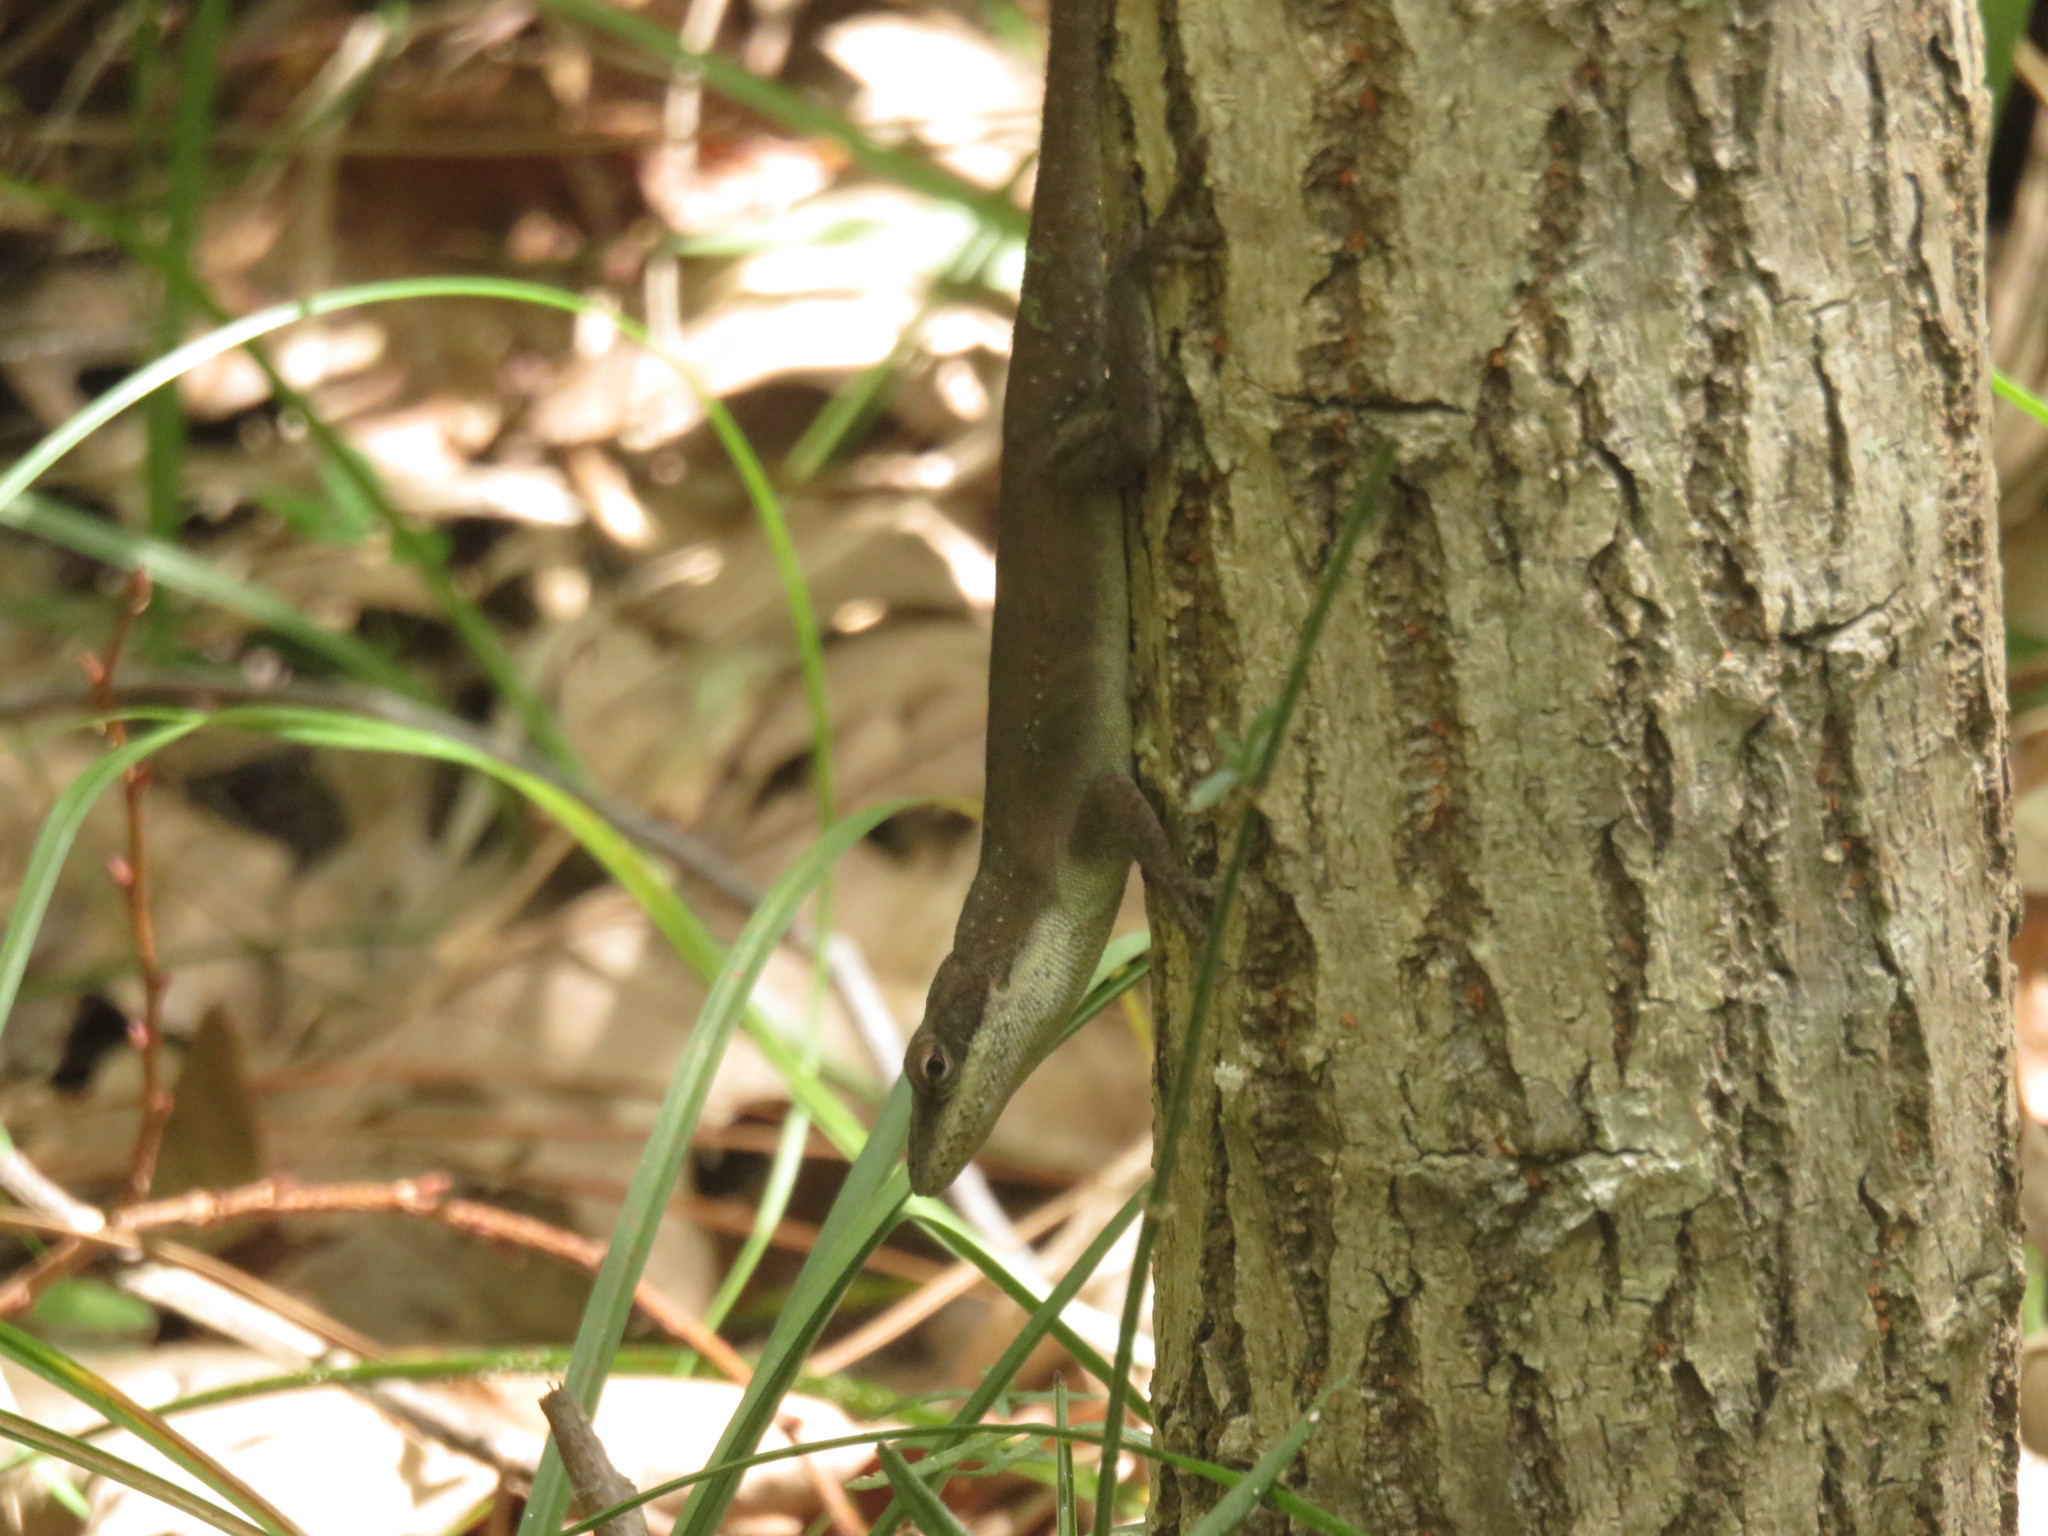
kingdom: Animalia
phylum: Chordata
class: Squamata
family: Dactyloidae
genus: Anolis
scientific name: Anolis carolinensis
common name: Green anole
